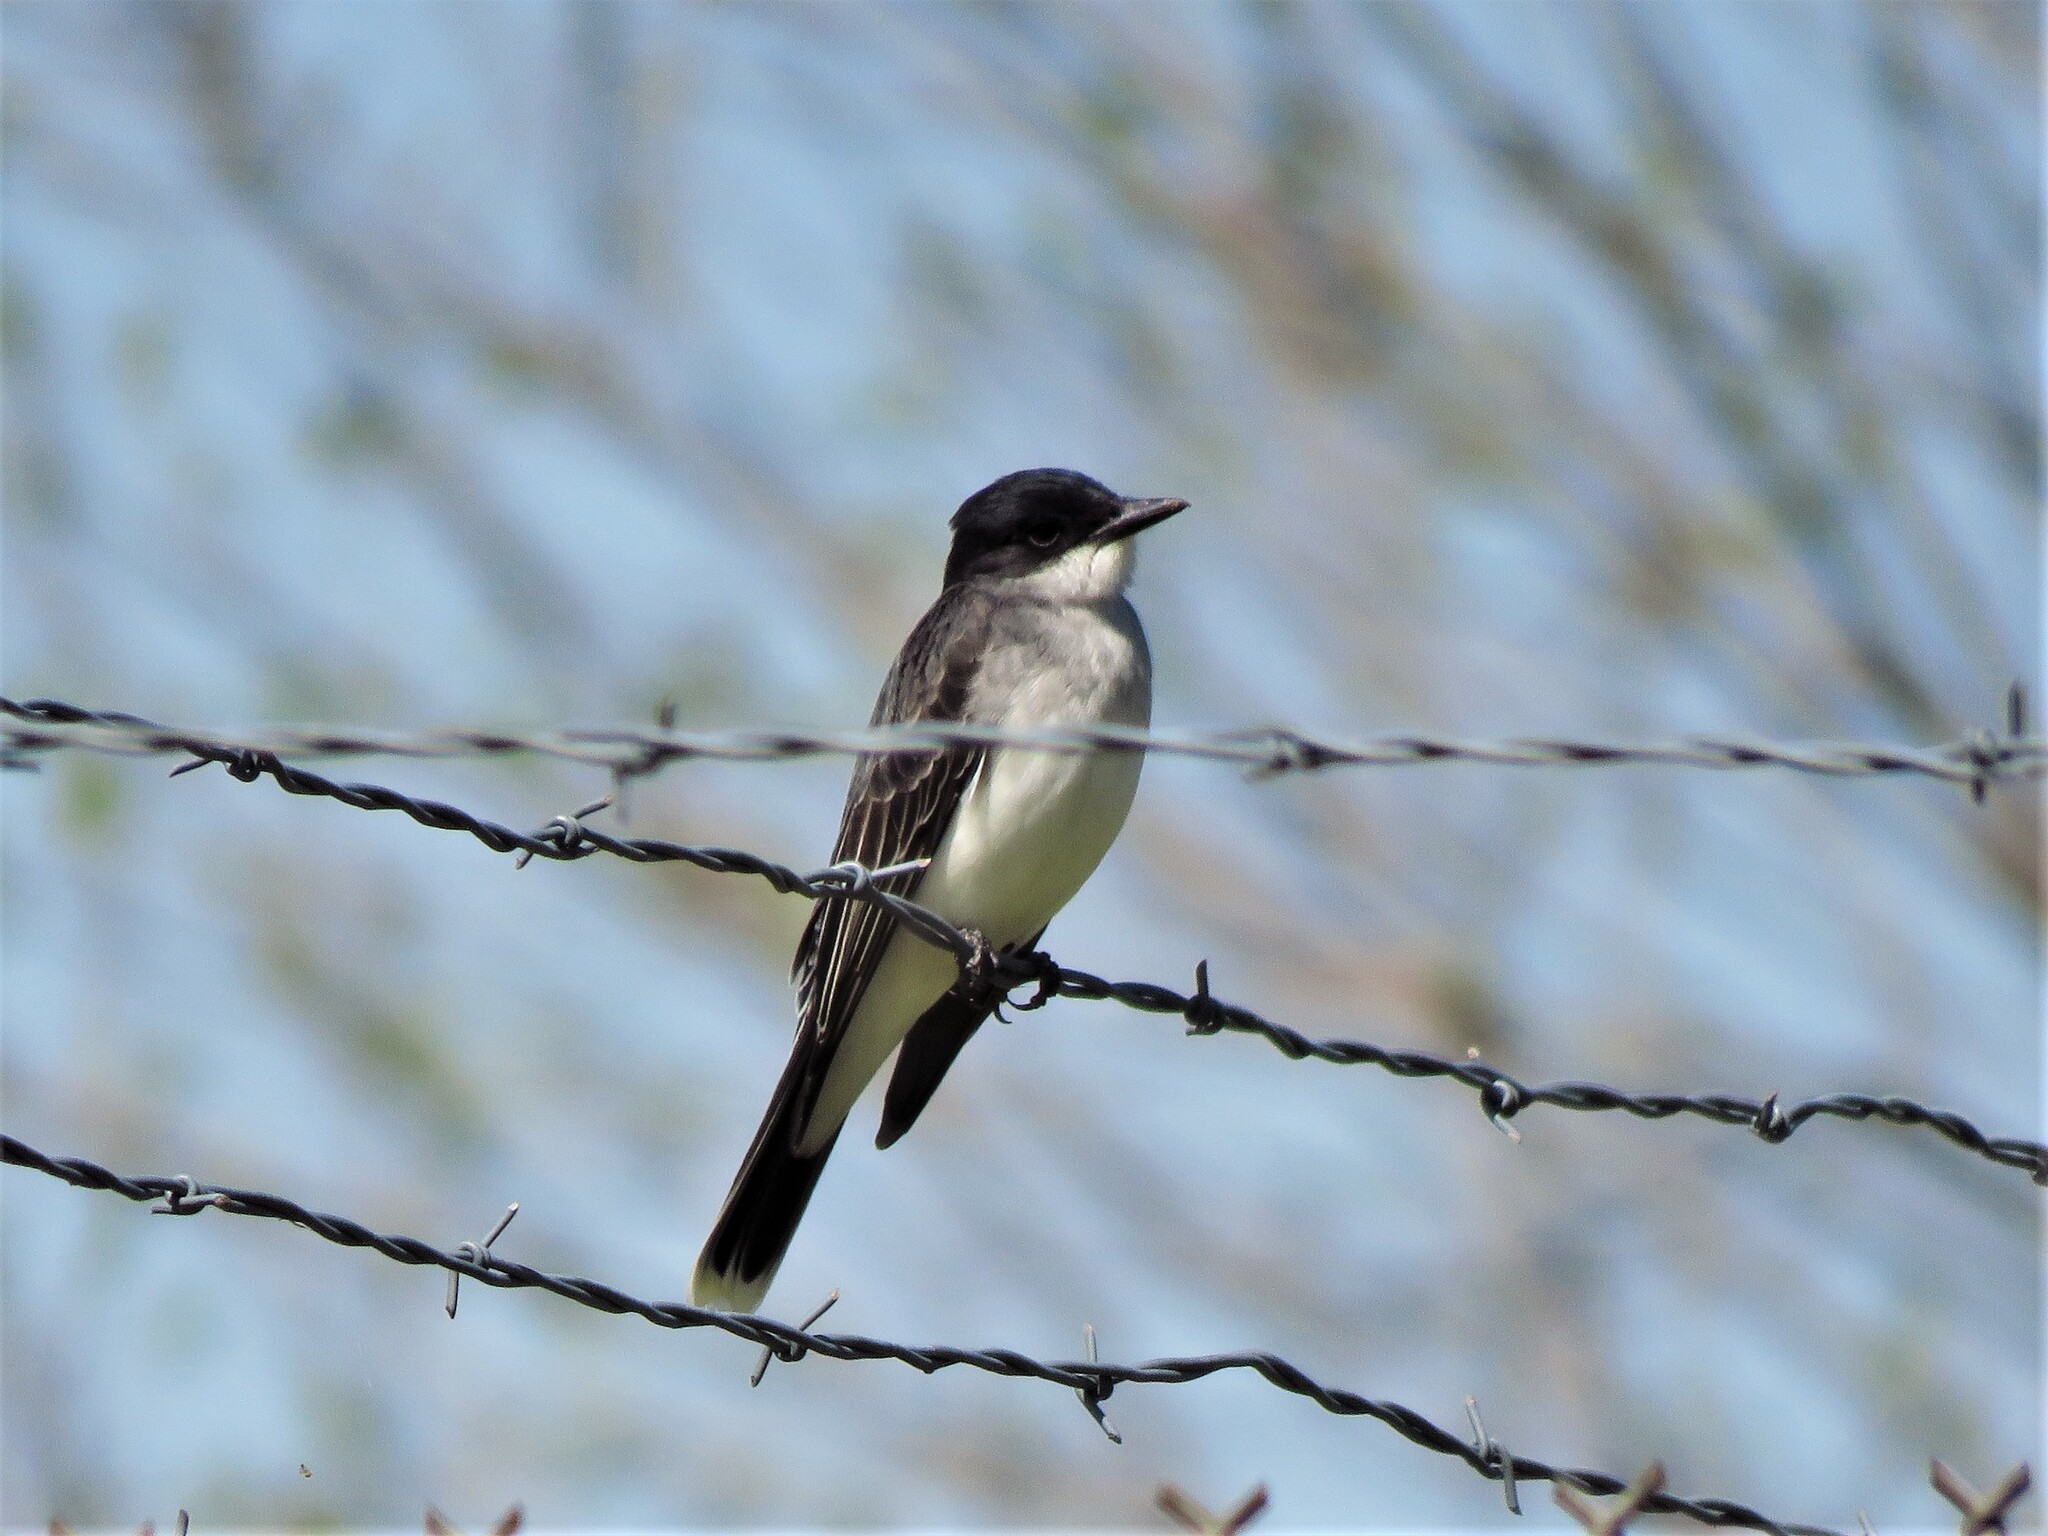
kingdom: Animalia
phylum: Chordata
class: Aves
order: Passeriformes
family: Tyrannidae
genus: Tyrannus
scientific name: Tyrannus tyrannus
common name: Eastern kingbird
